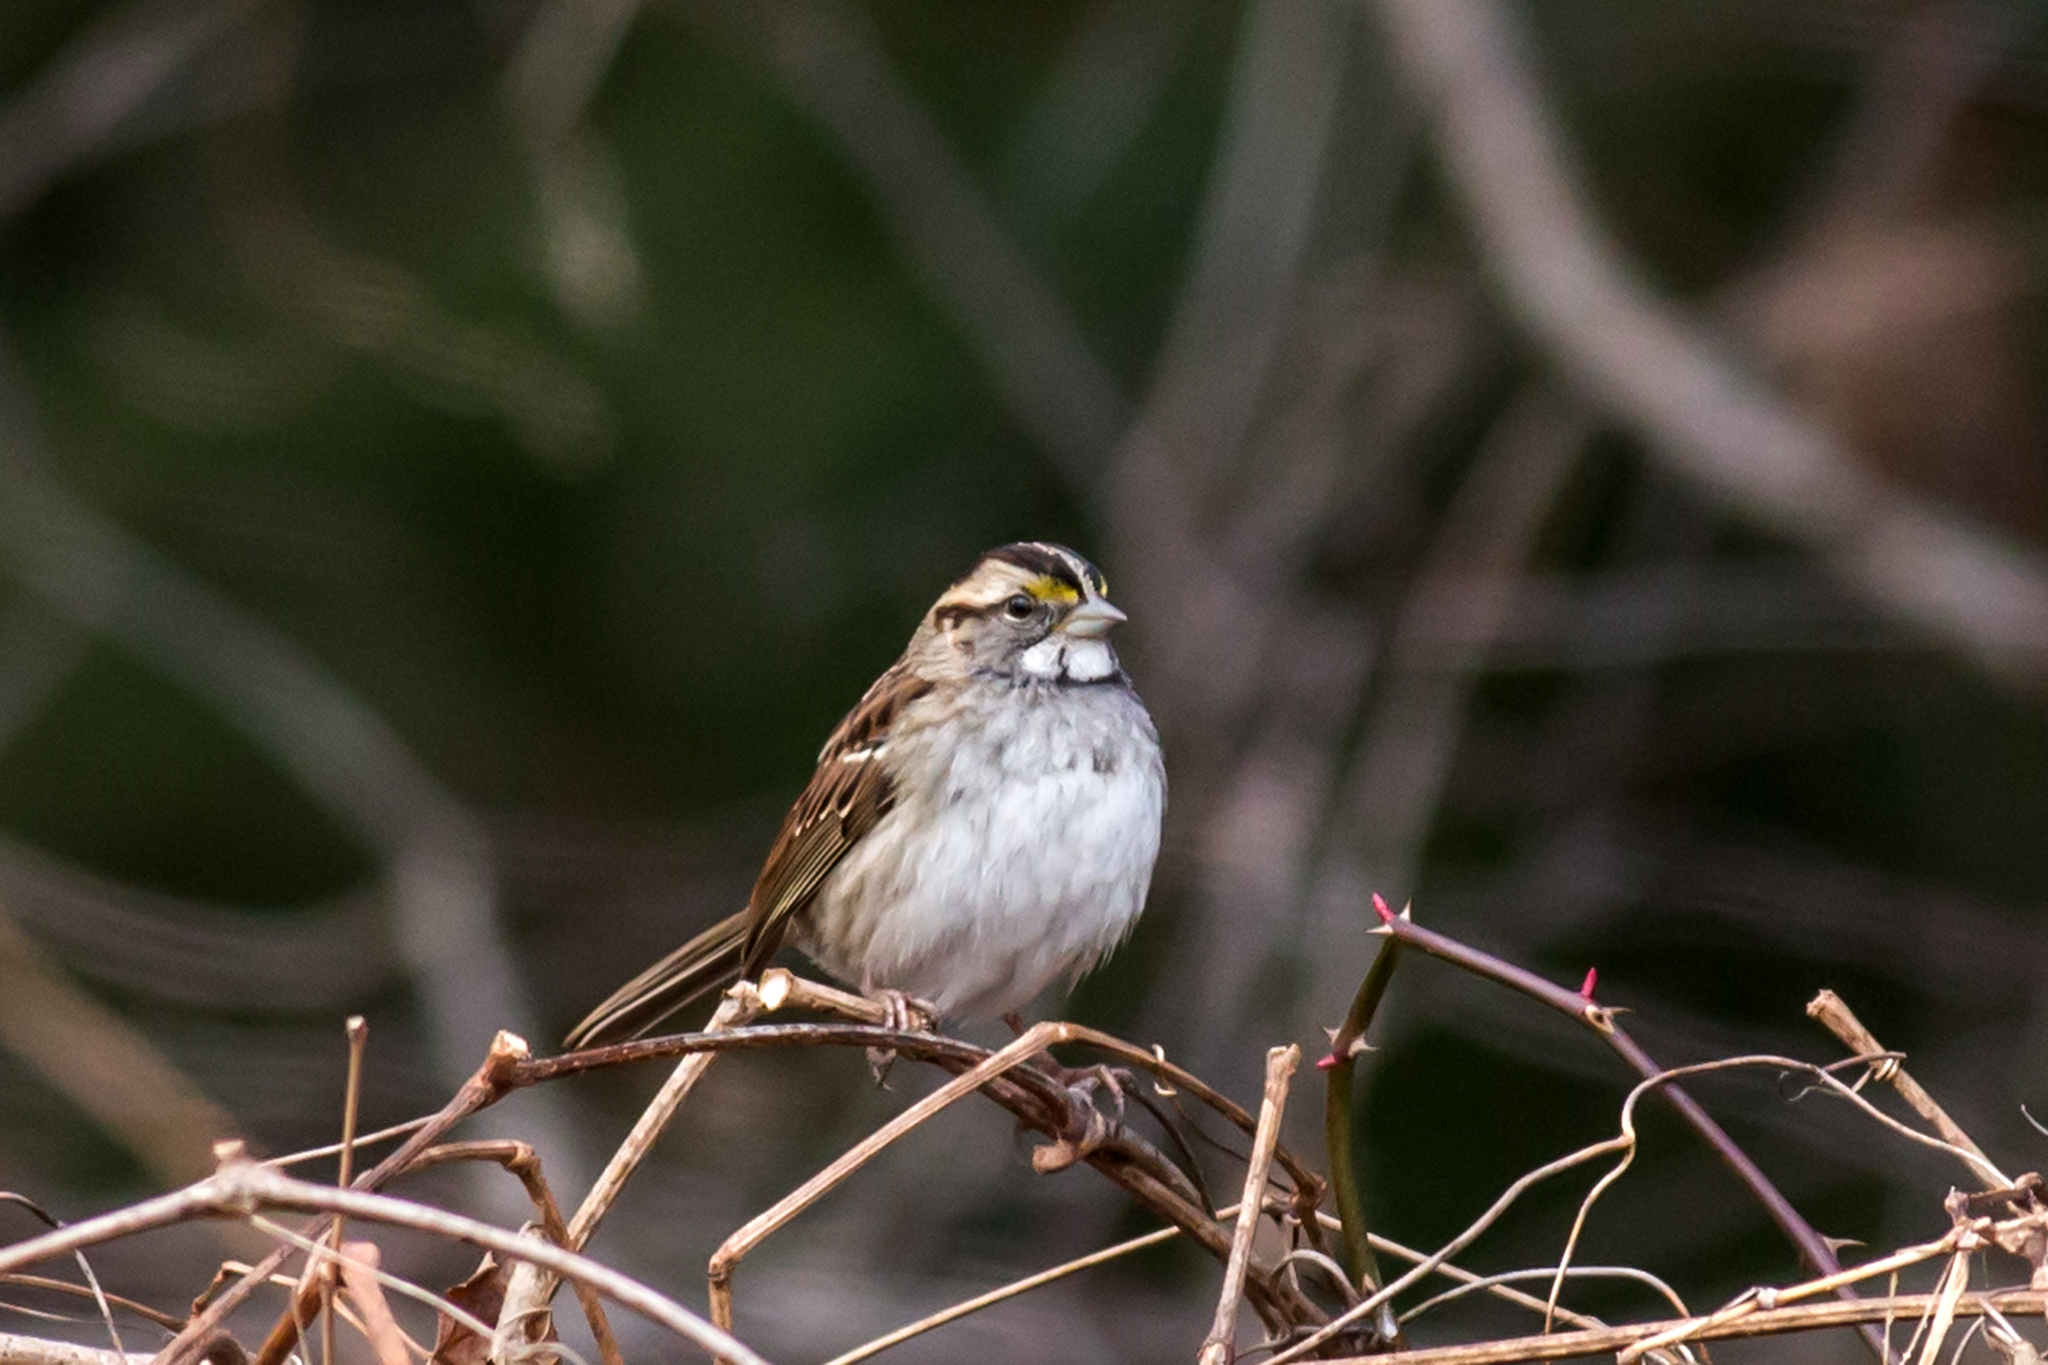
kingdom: Animalia
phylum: Chordata
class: Aves
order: Passeriformes
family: Passerellidae
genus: Zonotrichia
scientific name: Zonotrichia albicollis
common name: White-throated sparrow
